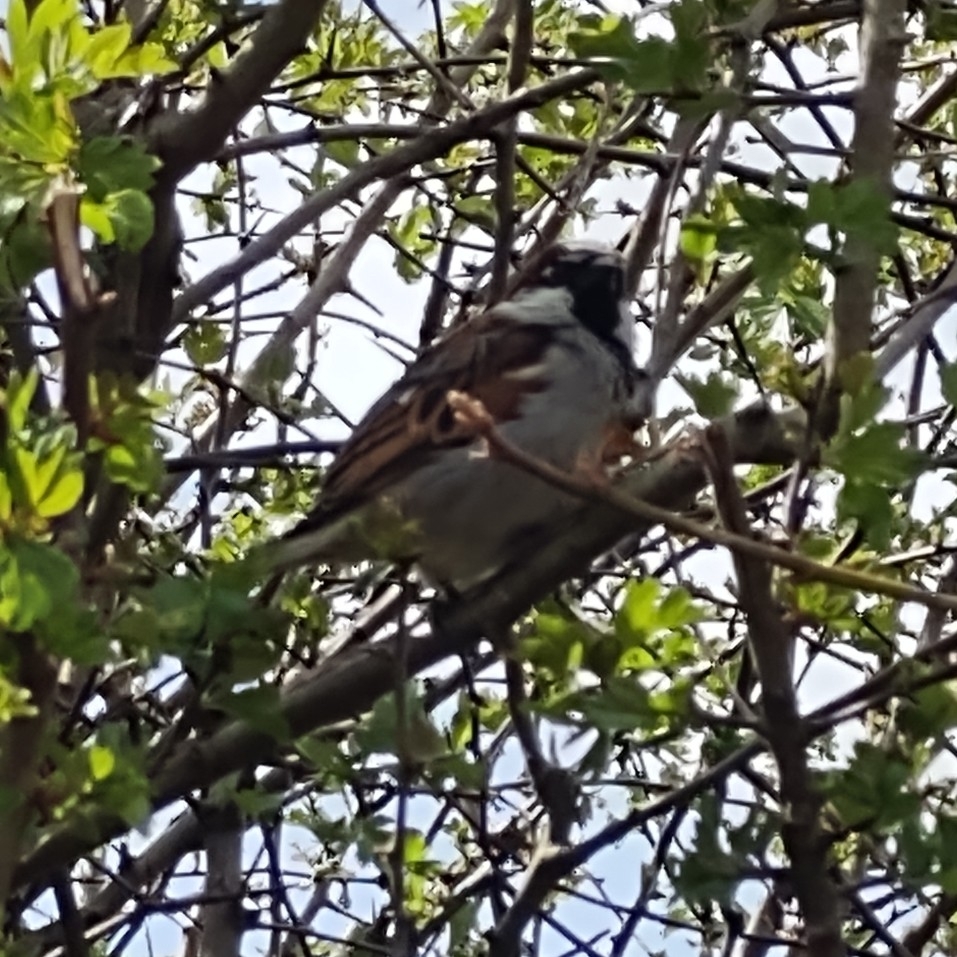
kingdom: Animalia
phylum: Chordata
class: Aves
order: Passeriformes
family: Passeridae
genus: Passer
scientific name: Passer domesticus
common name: House sparrow
